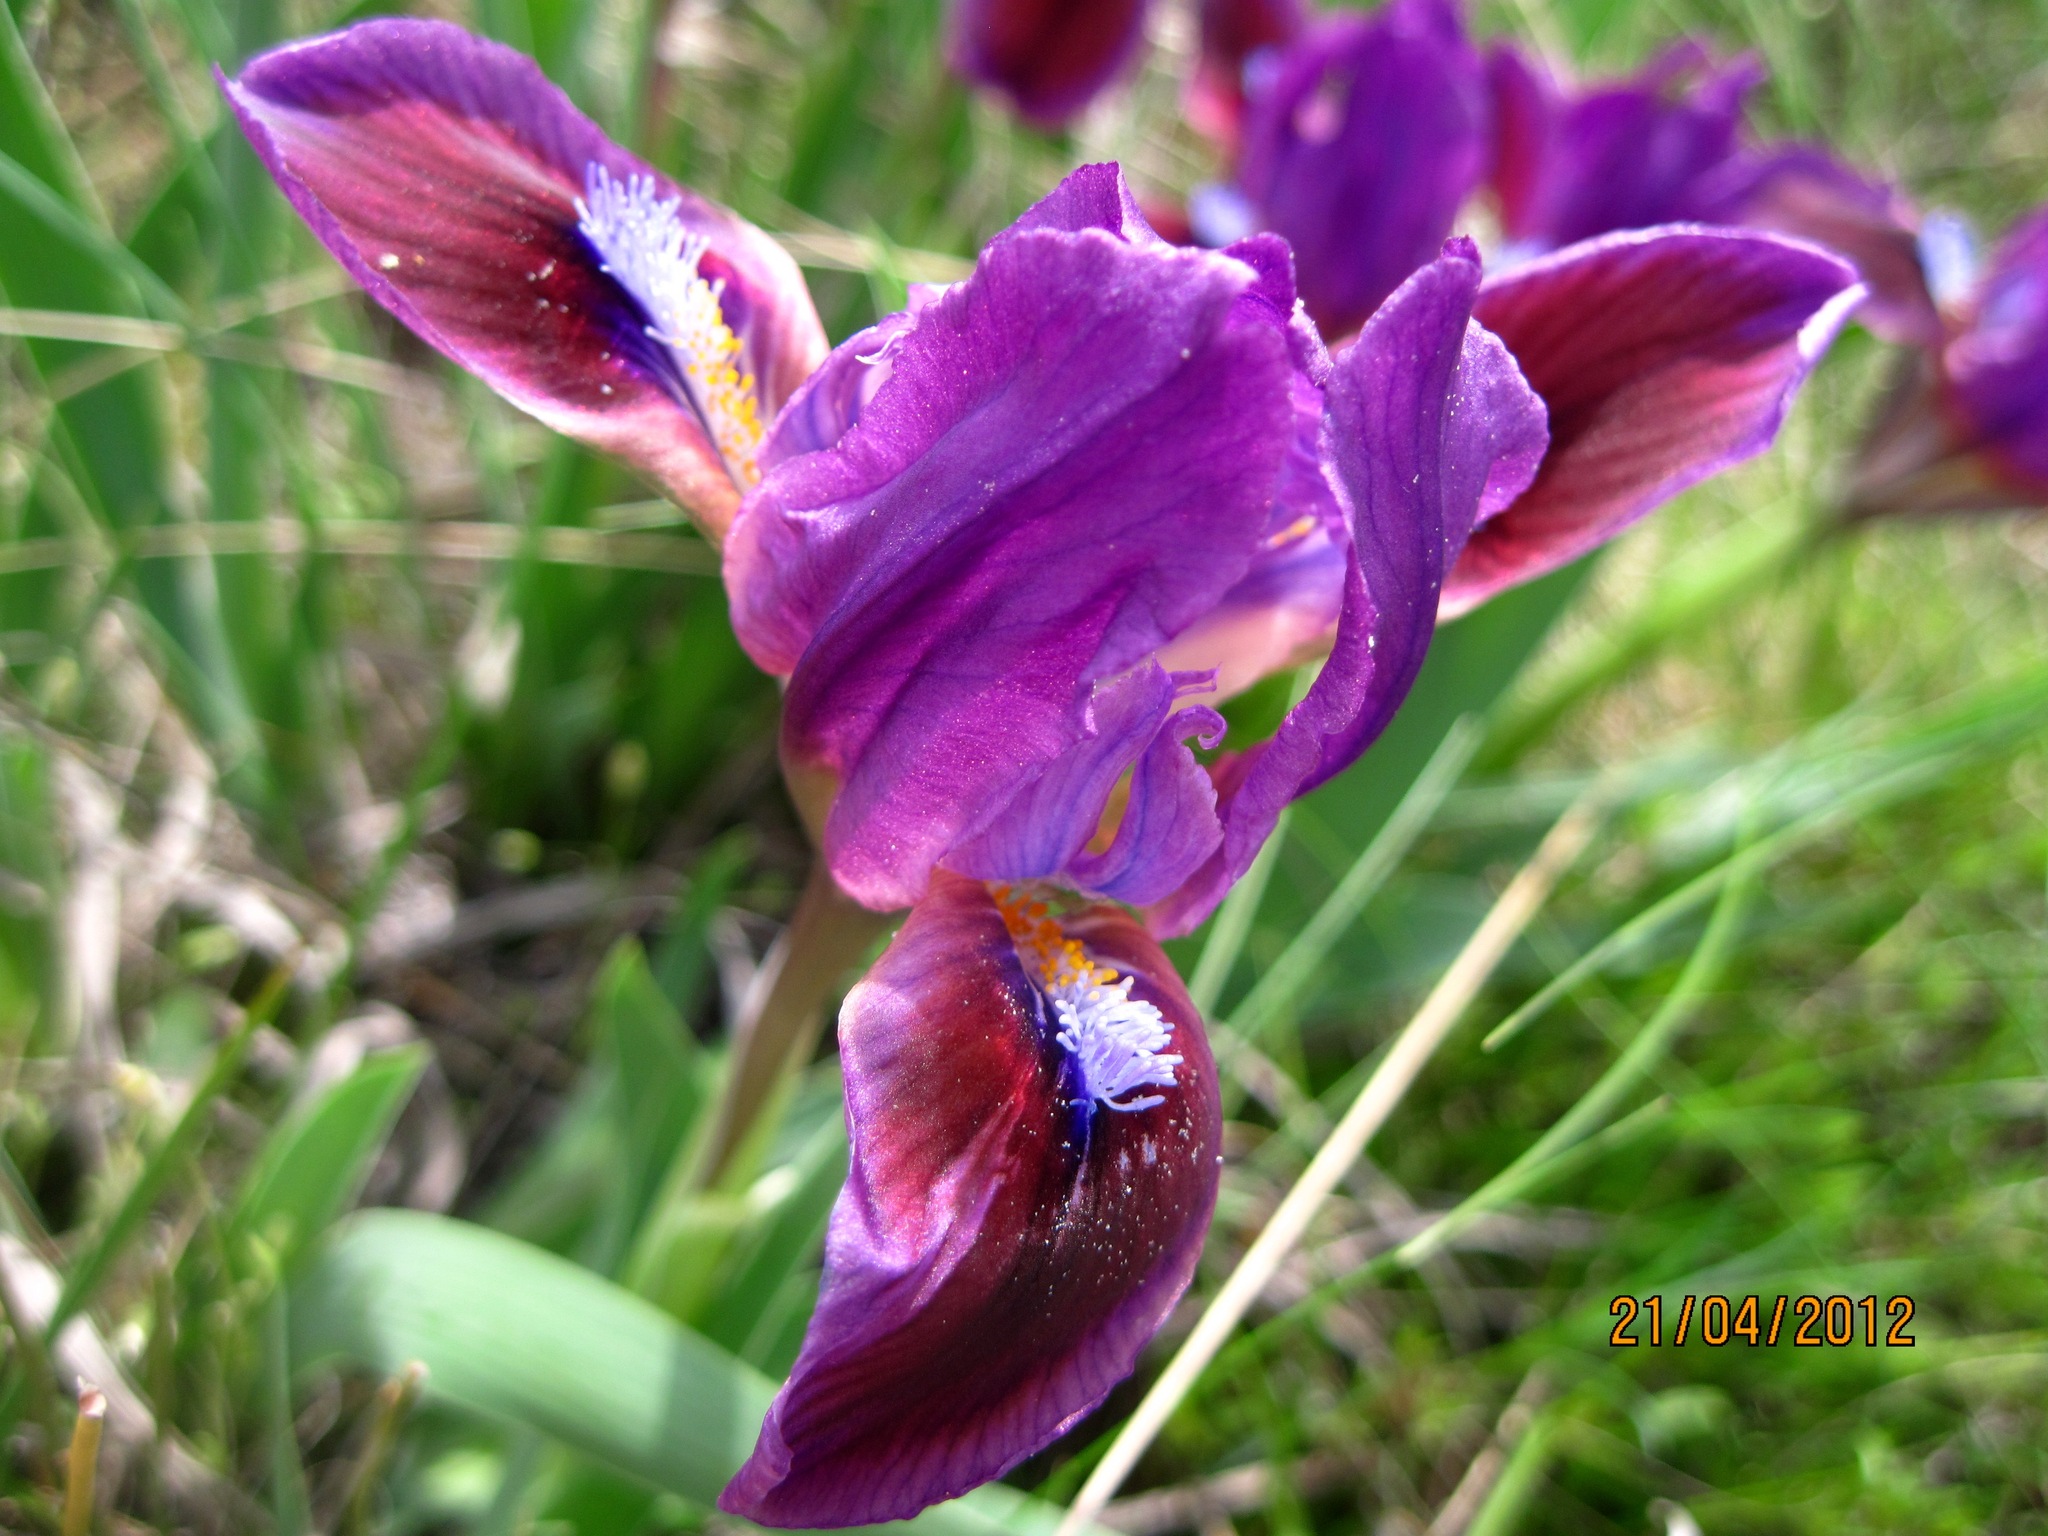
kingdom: Plantae
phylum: Tracheophyta
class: Liliopsida
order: Asparagales
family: Iridaceae
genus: Iris
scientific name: Iris pumila
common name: Dwarf iris
